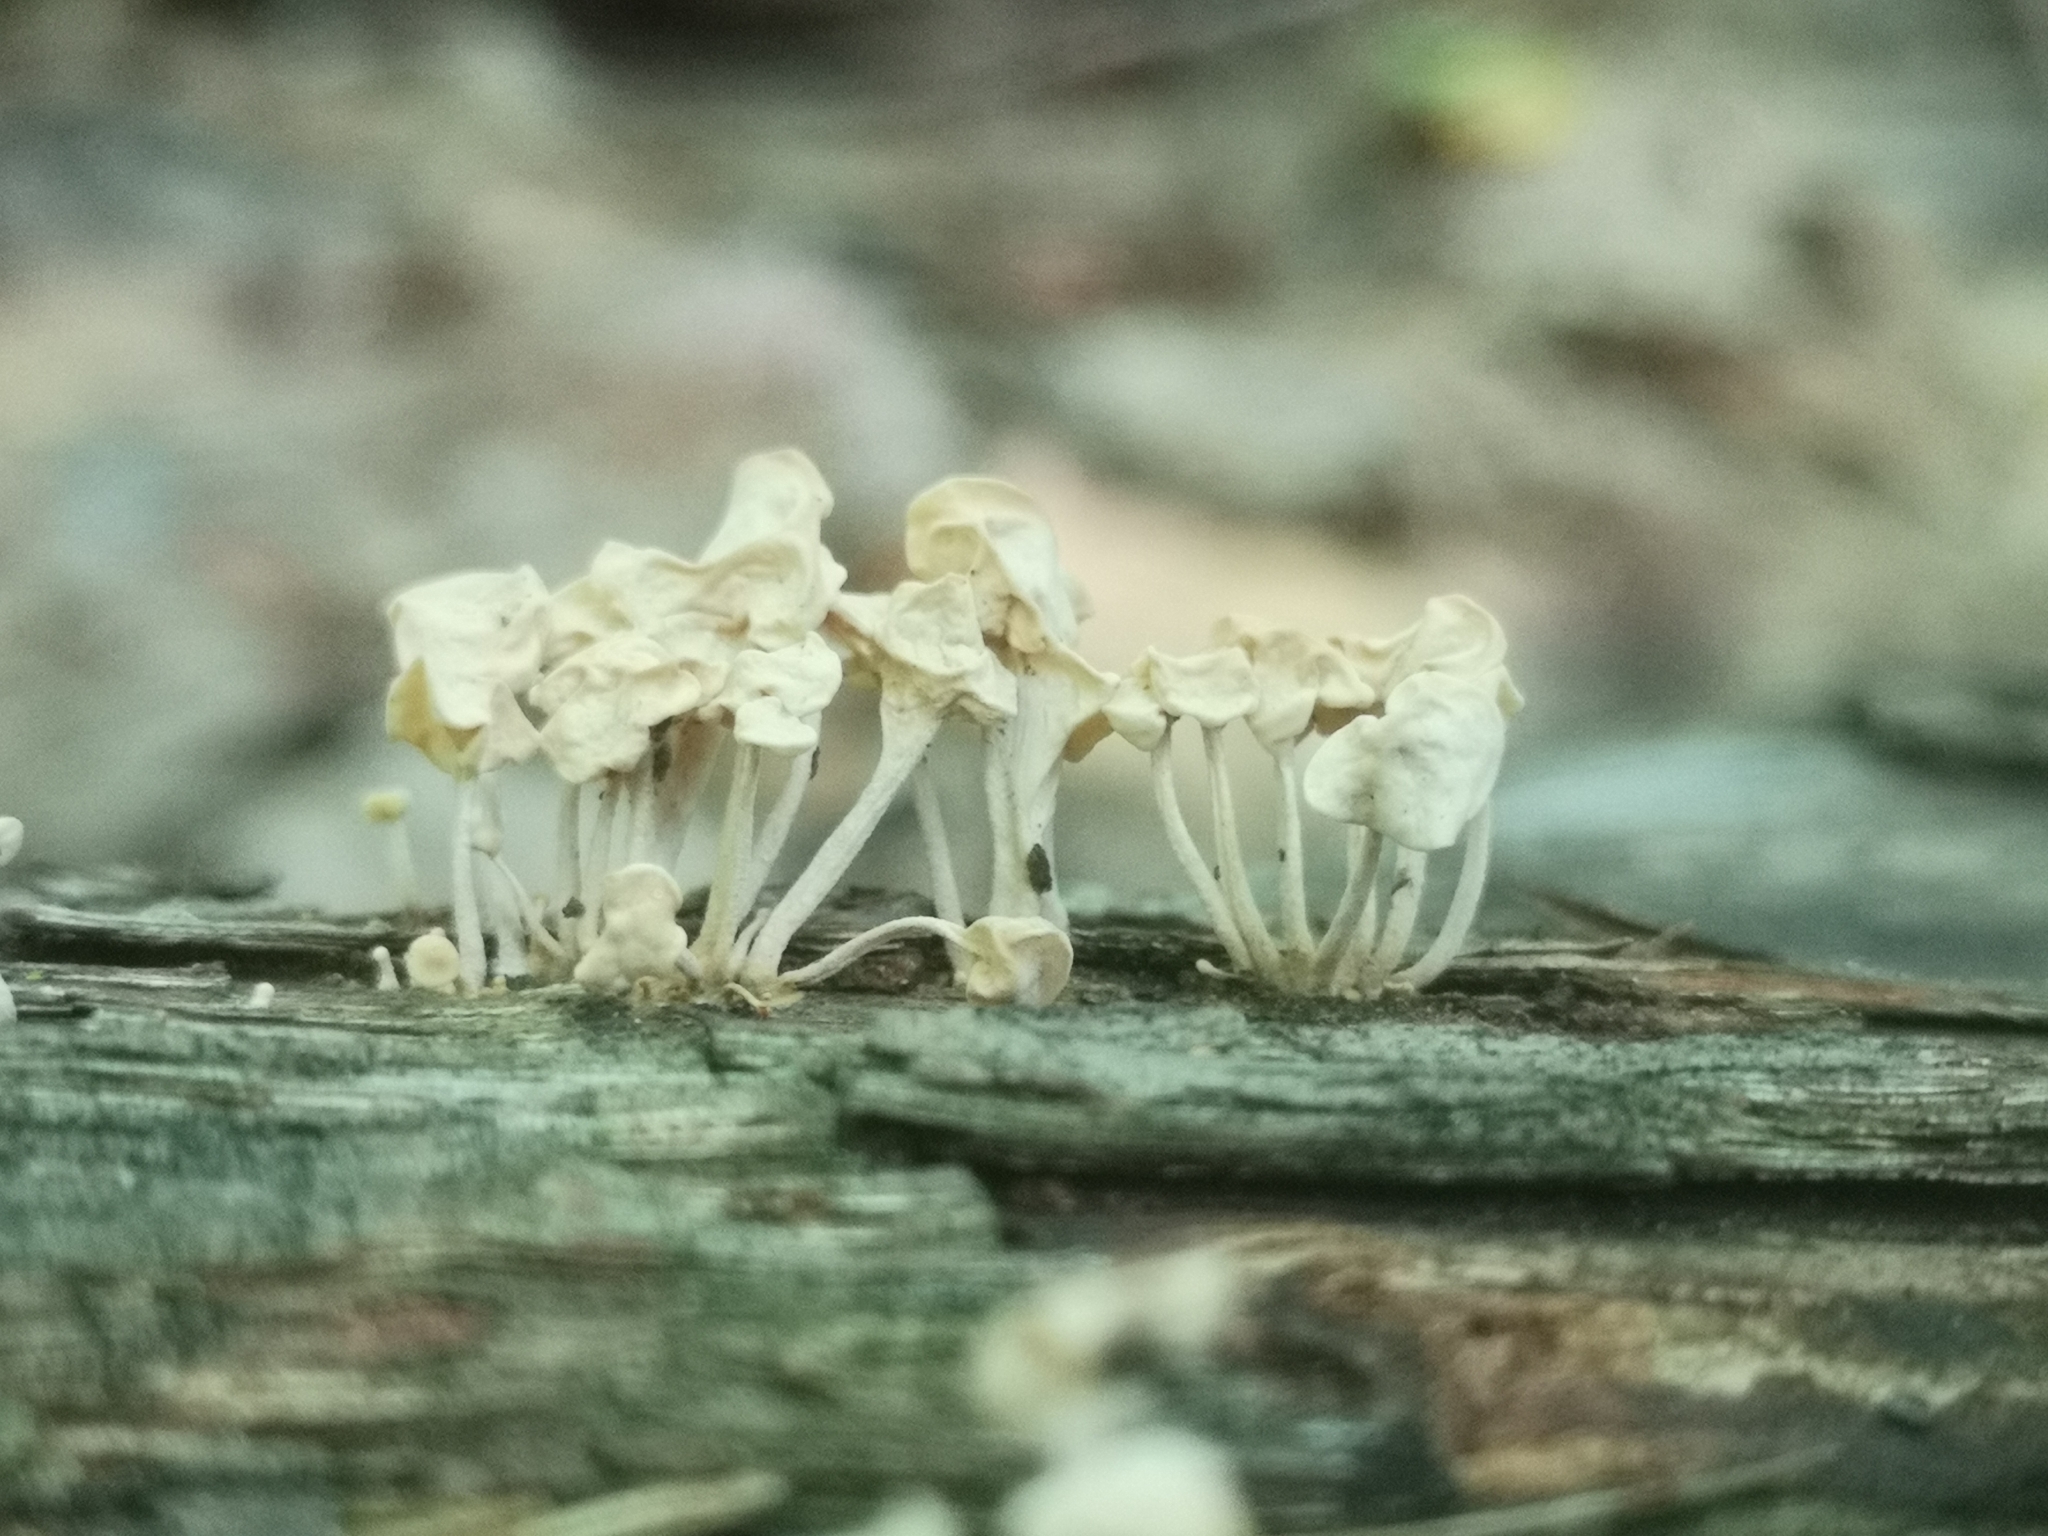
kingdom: Fungi
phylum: Basidiomycota
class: Agaricomycetes
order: Agaricales
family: Physalacriaceae
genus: Physalacria
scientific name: Physalacria inflata
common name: Bladder stalks
